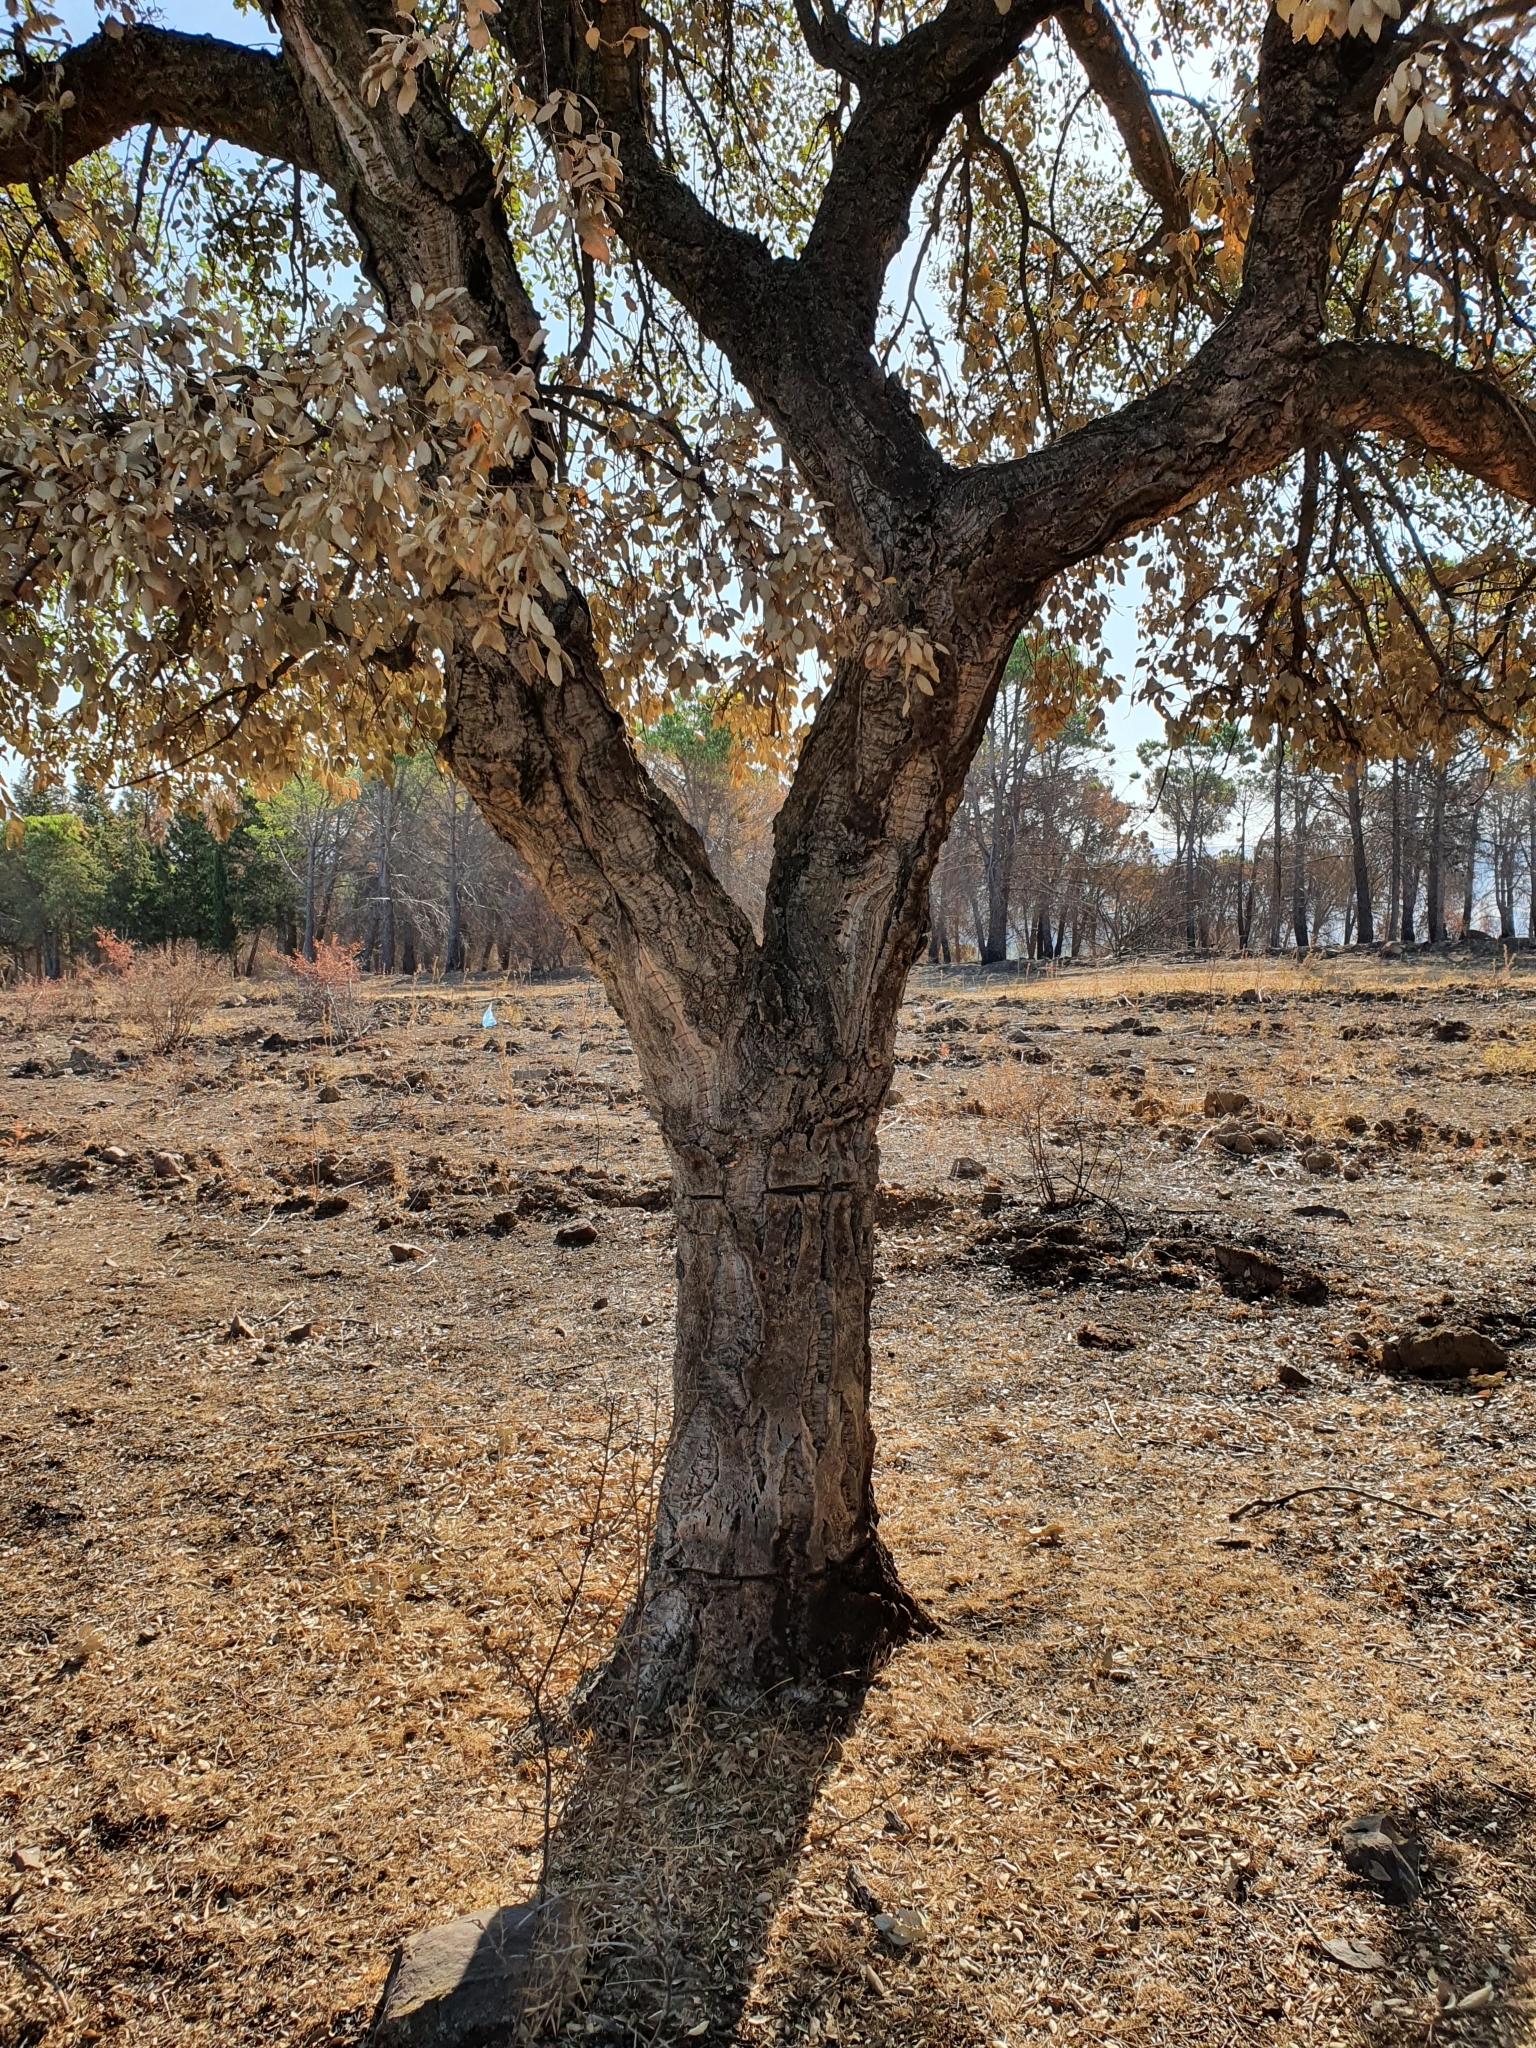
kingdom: Plantae
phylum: Tracheophyta
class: Magnoliopsida
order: Fagales
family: Fagaceae
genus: Quercus
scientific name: Quercus suber
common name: Cork oak
